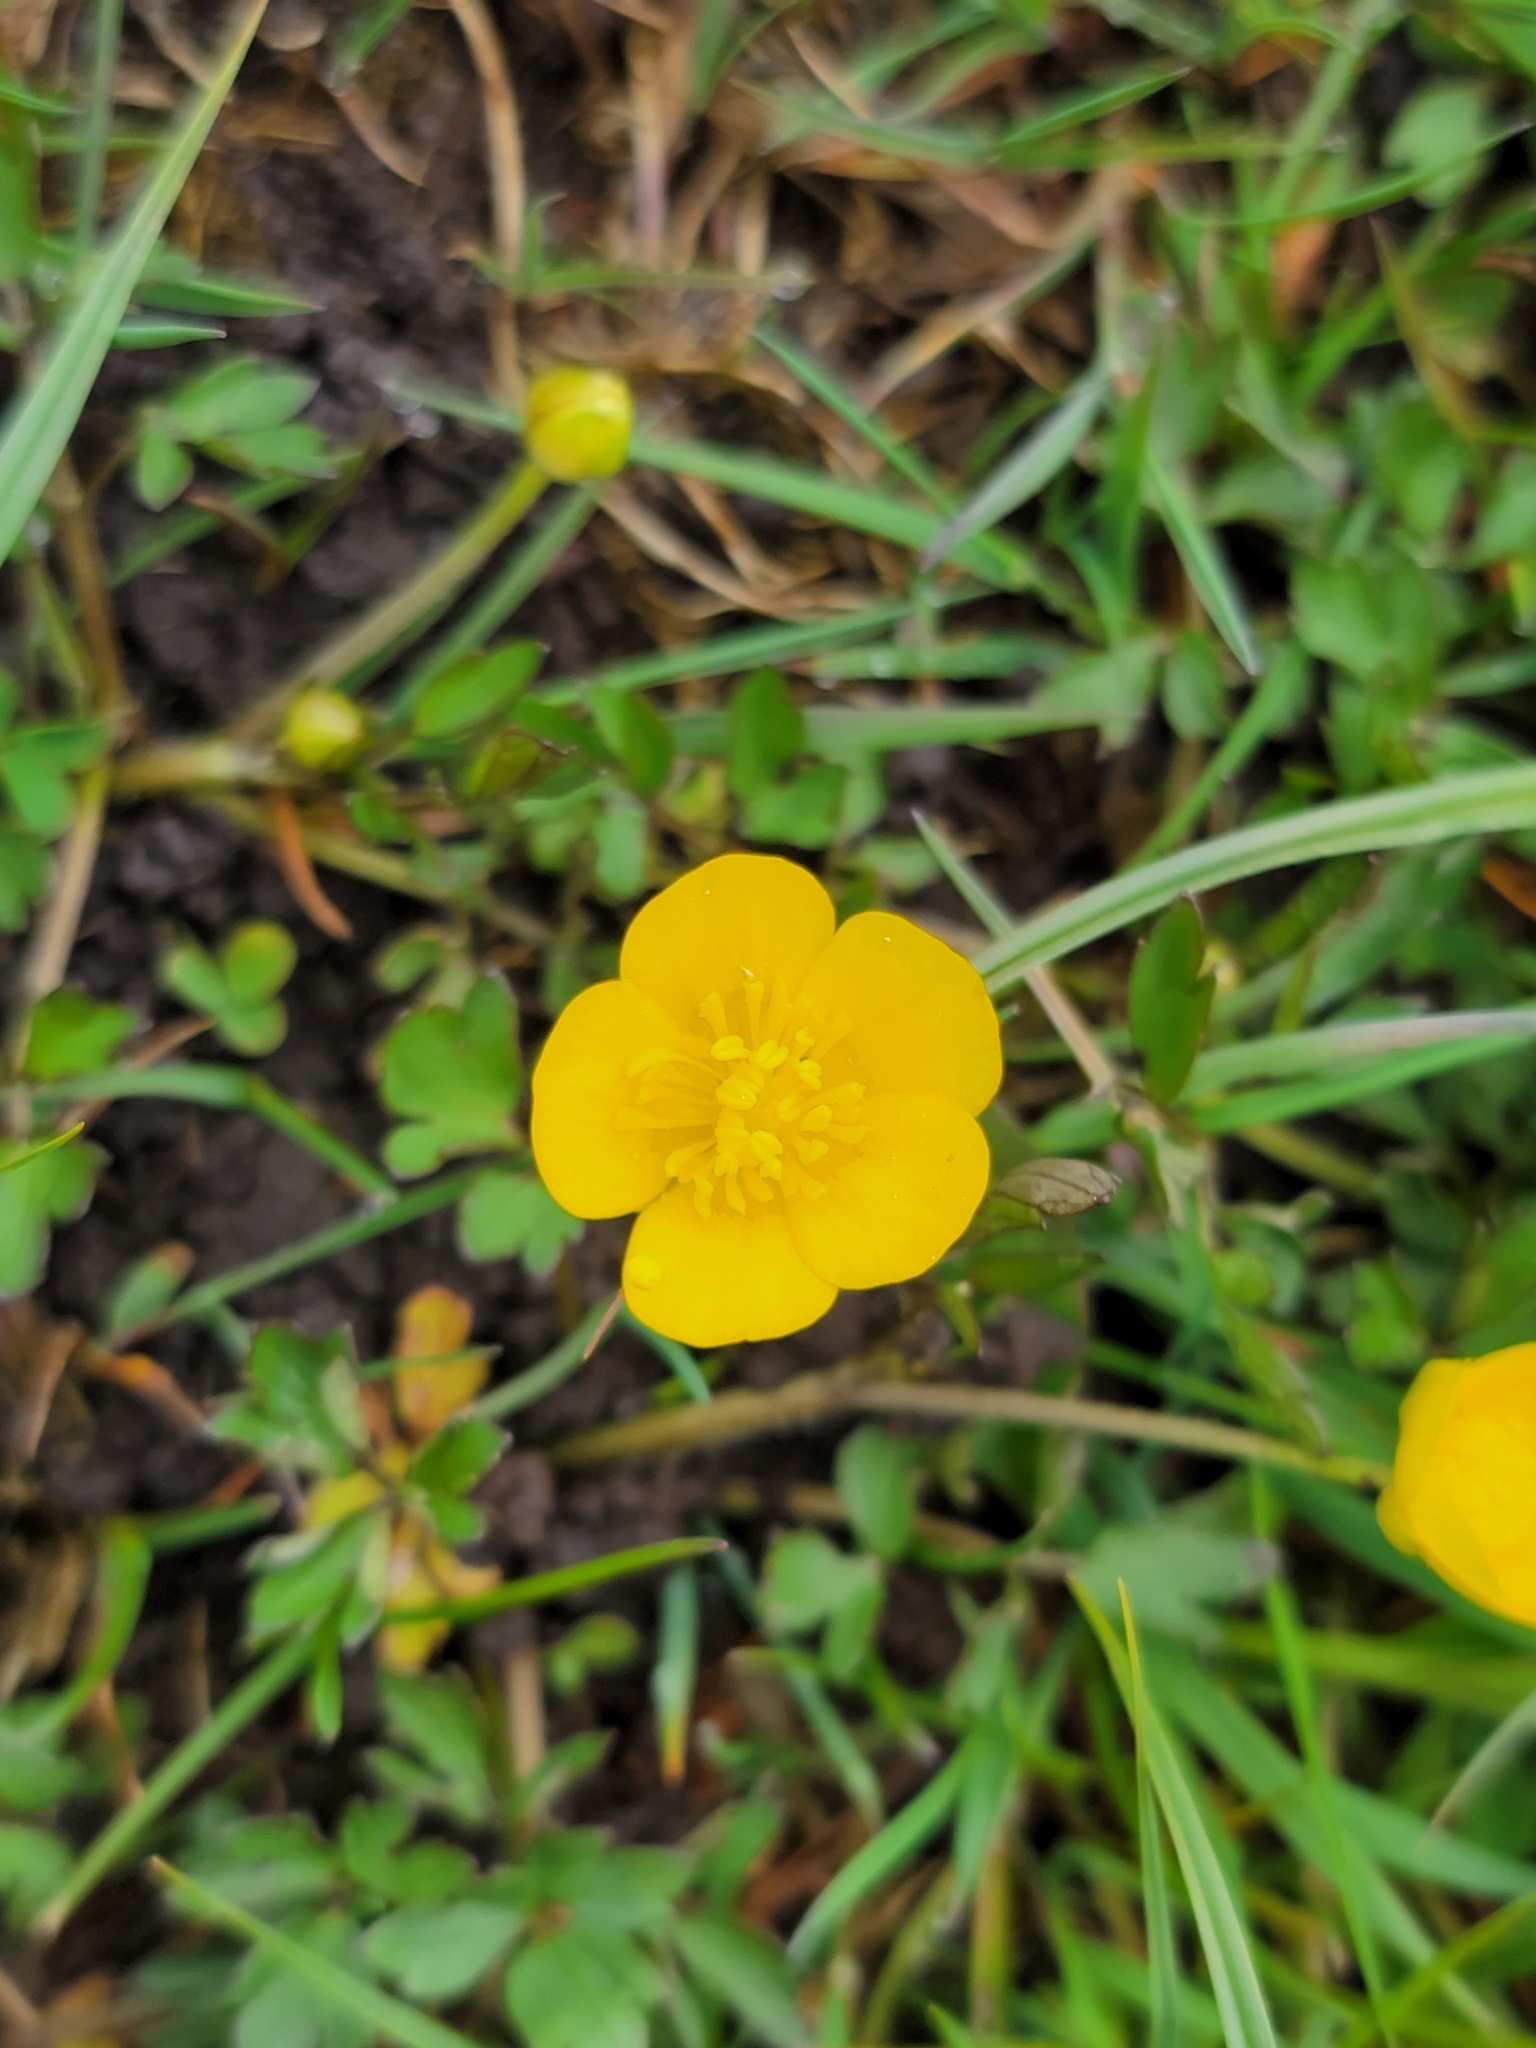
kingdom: Plantae
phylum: Tracheophyta
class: Magnoliopsida
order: Ranunculales
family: Ranunculaceae
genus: Ranunculus
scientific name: Ranunculus repens
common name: Creeping buttercup
